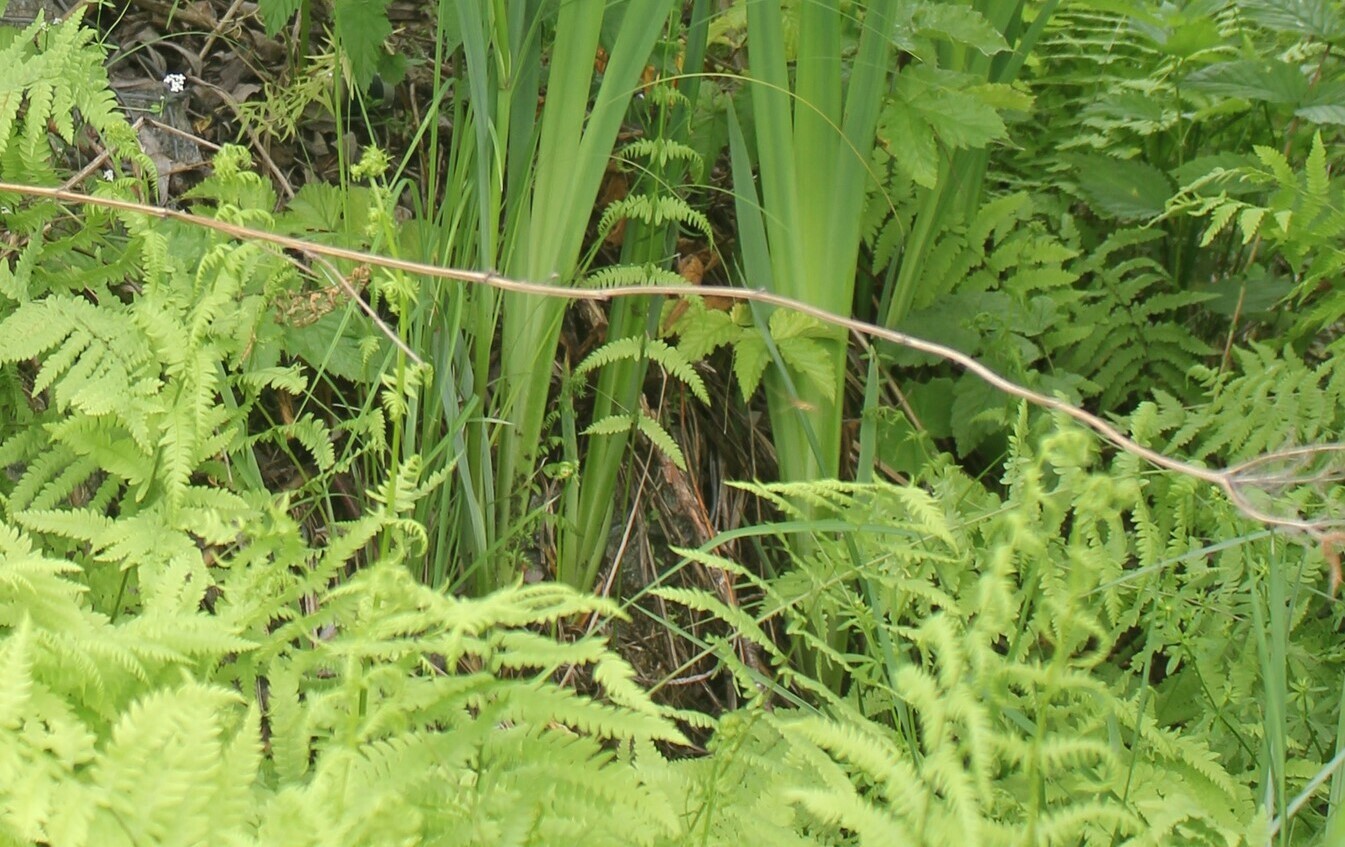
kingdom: Plantae
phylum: Tracheophyta
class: Polypodiopsida
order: Polypodiales
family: Thelypteridaceae
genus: Thelypteris
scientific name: Thelypteris palustris
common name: Marsh fern
